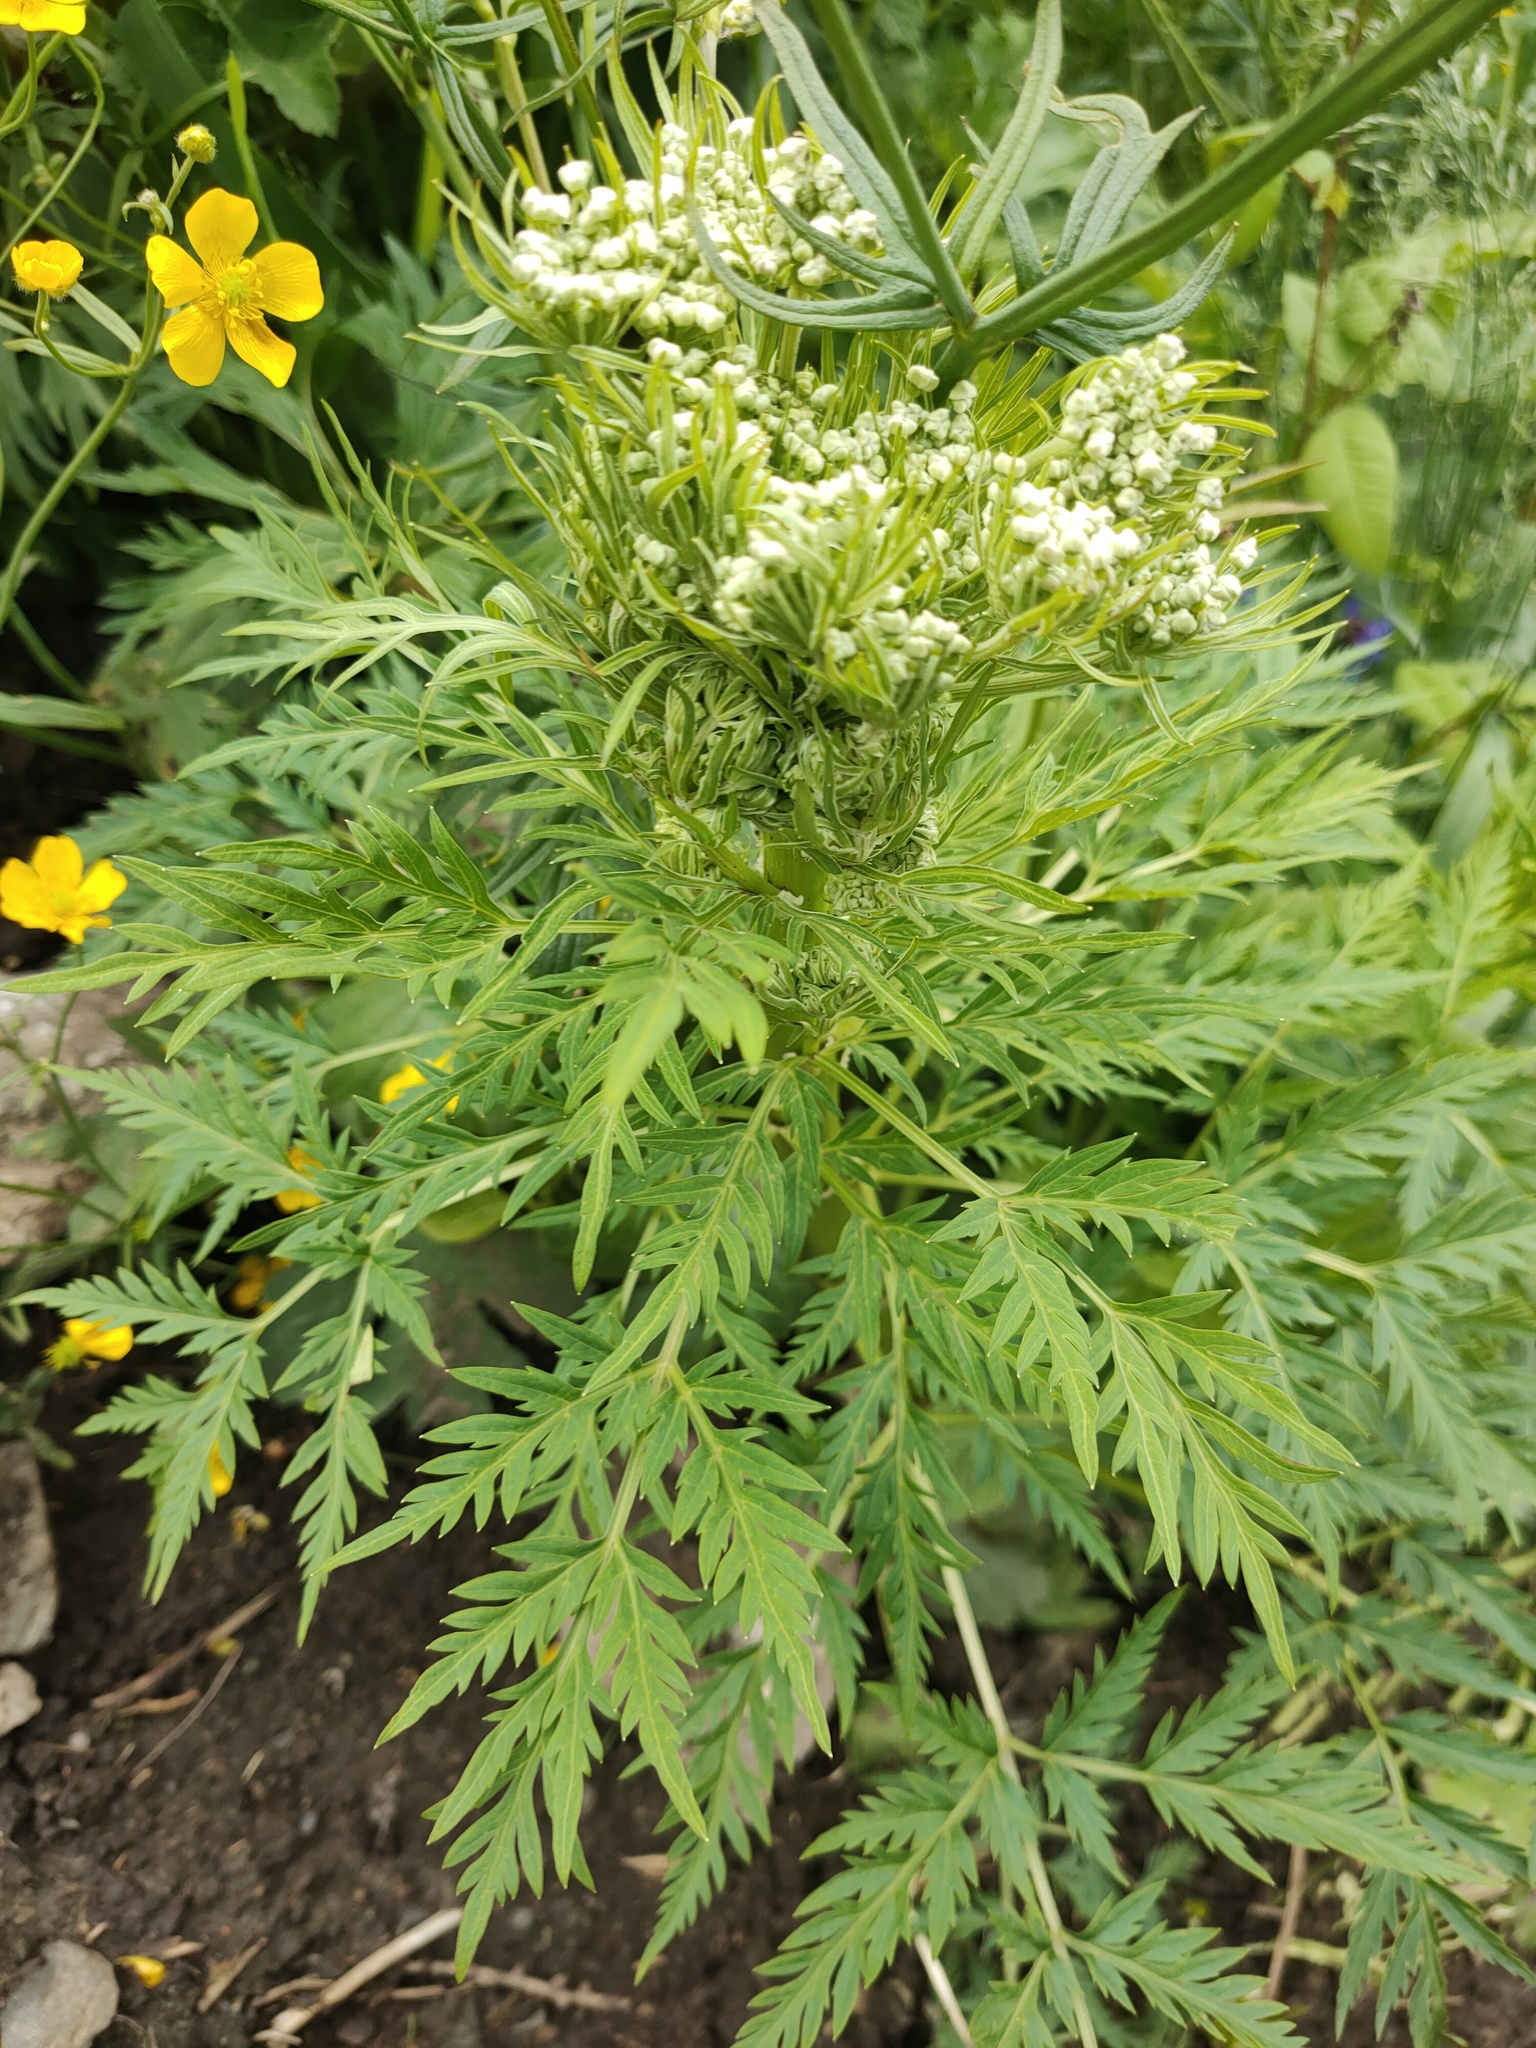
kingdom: Plantae
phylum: Tracheophyta
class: Magnoliopsida
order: Apiales
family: Apiaceae
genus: Pleurospermum
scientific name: Pleurospermum uralense
